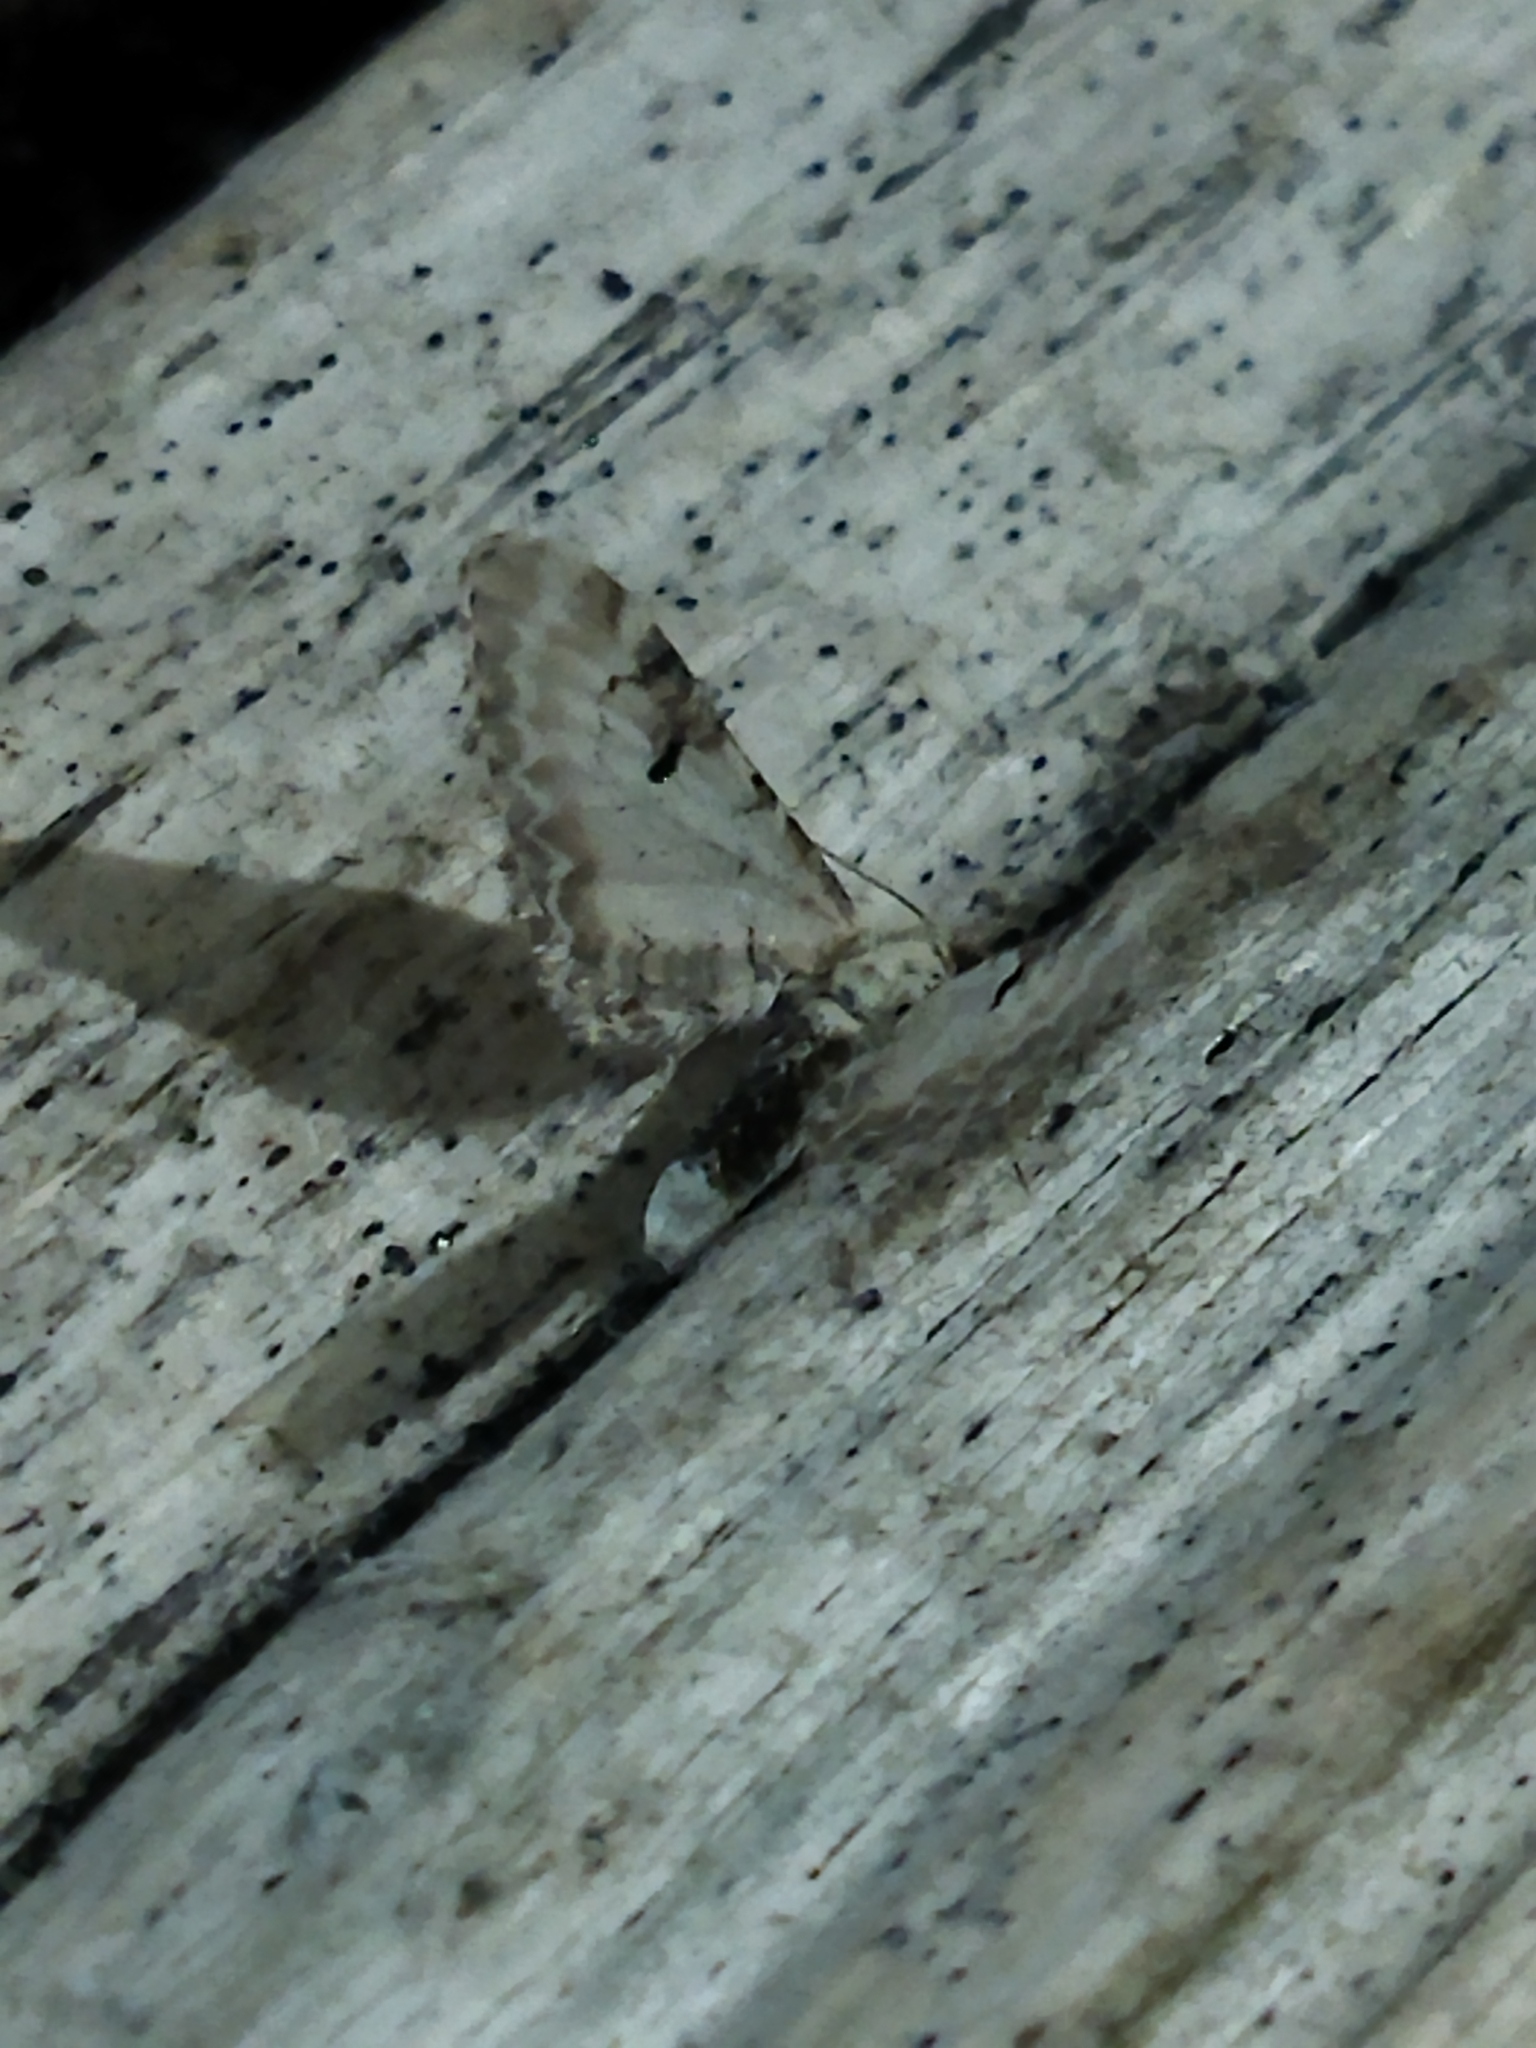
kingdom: Animalia
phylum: Arthropoda
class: Insecta
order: Lepidoptera
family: Geometridae
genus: Eupithecia
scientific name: Eupithecia centaureata
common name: Lime-speck pug
